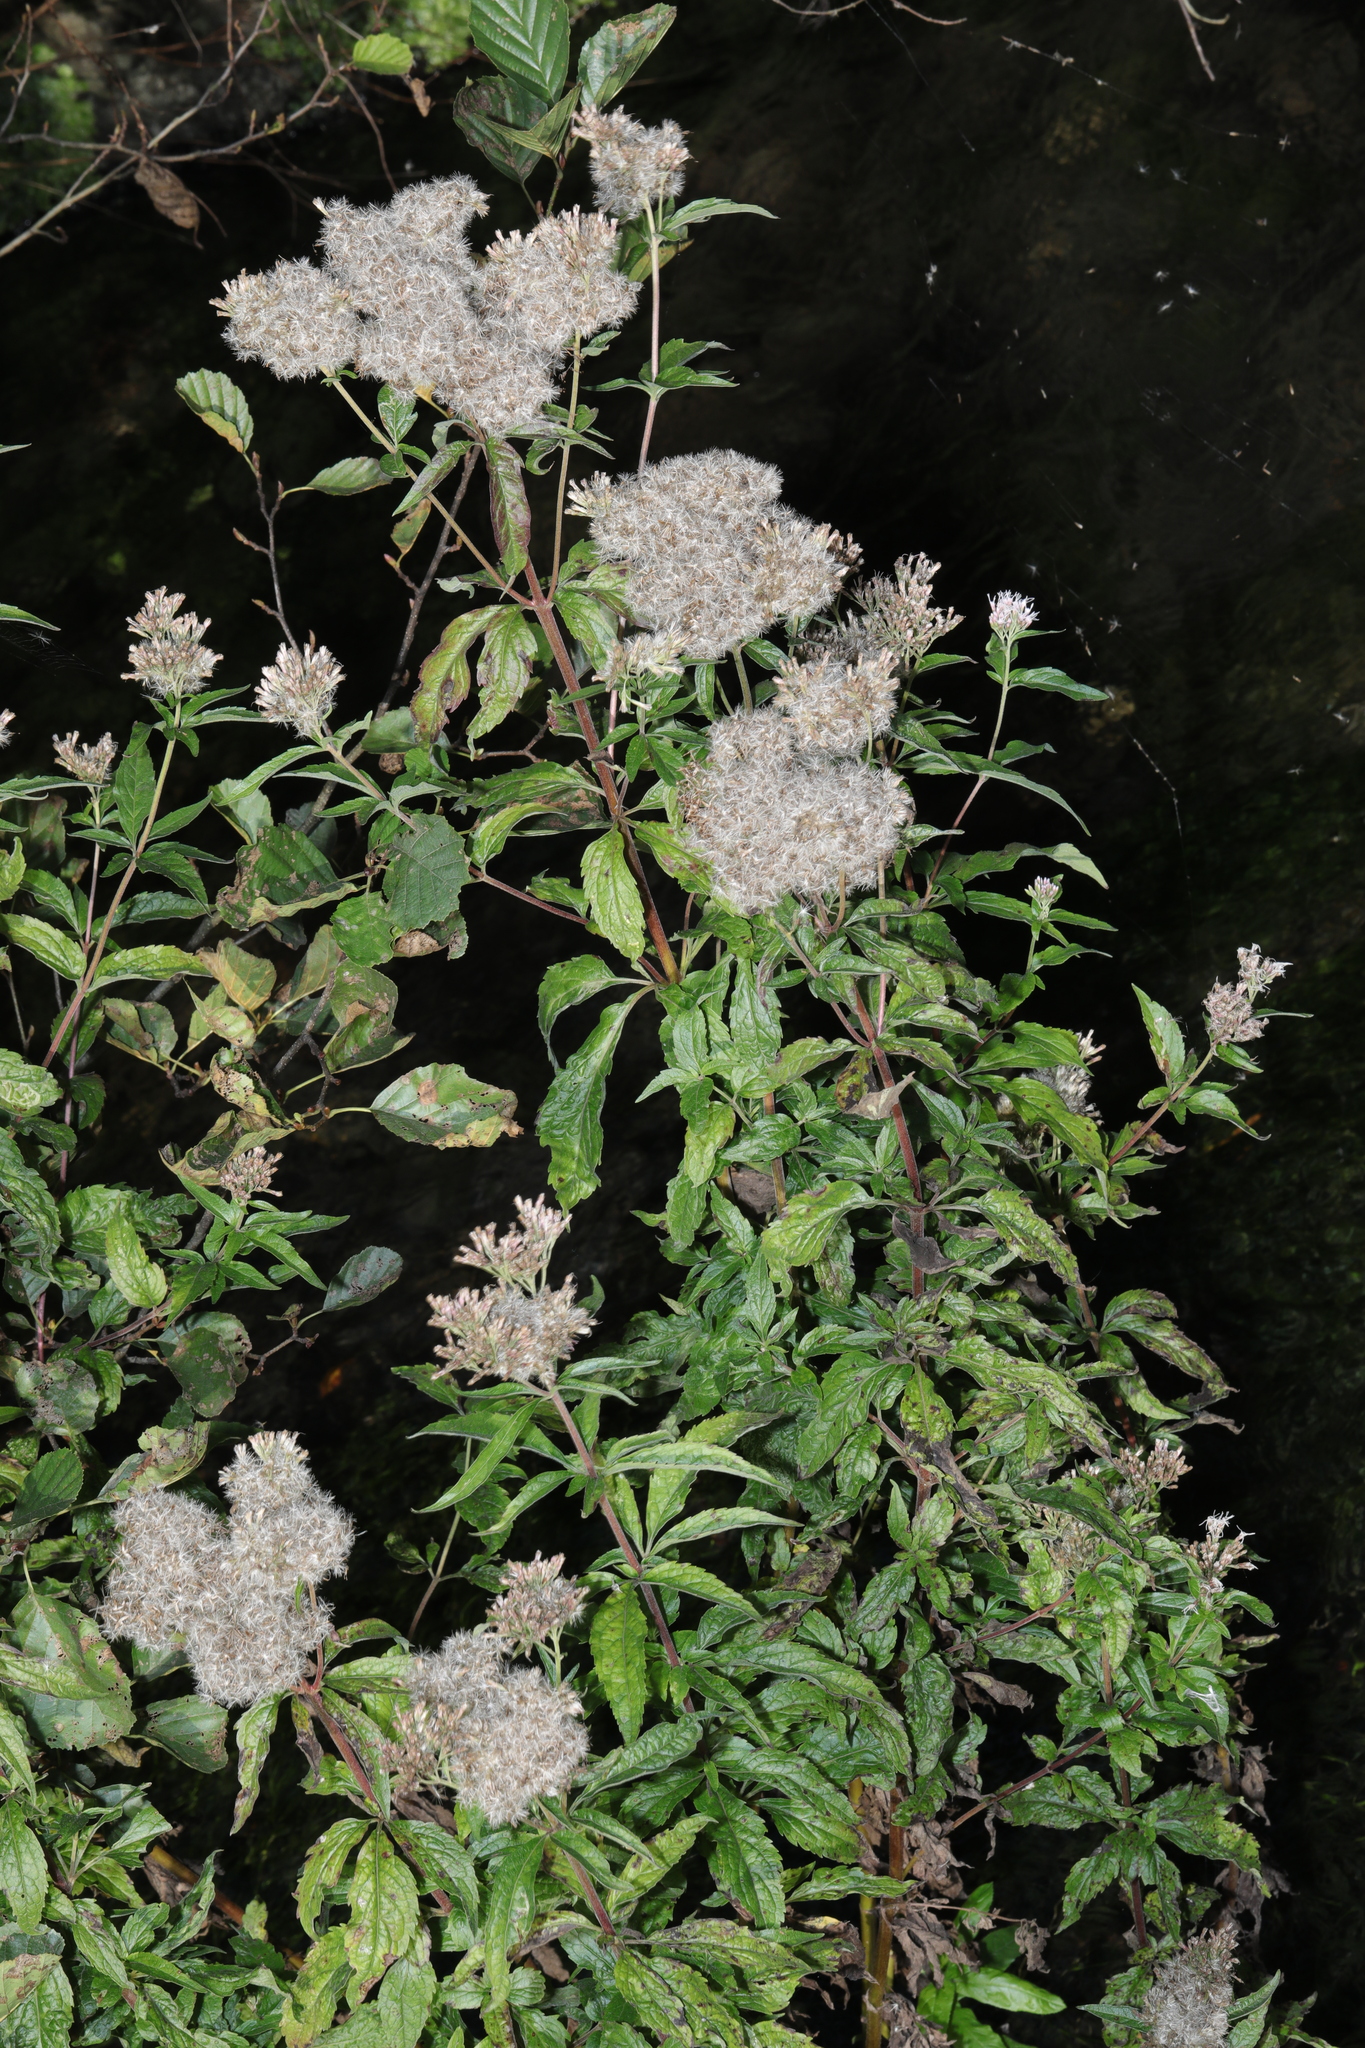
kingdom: Plantae
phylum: Tracheophyta
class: Magnoliopsida
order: Asterales
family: Asteraceae
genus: Eupatorium
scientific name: Eupatorium cannabinum
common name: Hemp-agrimony
